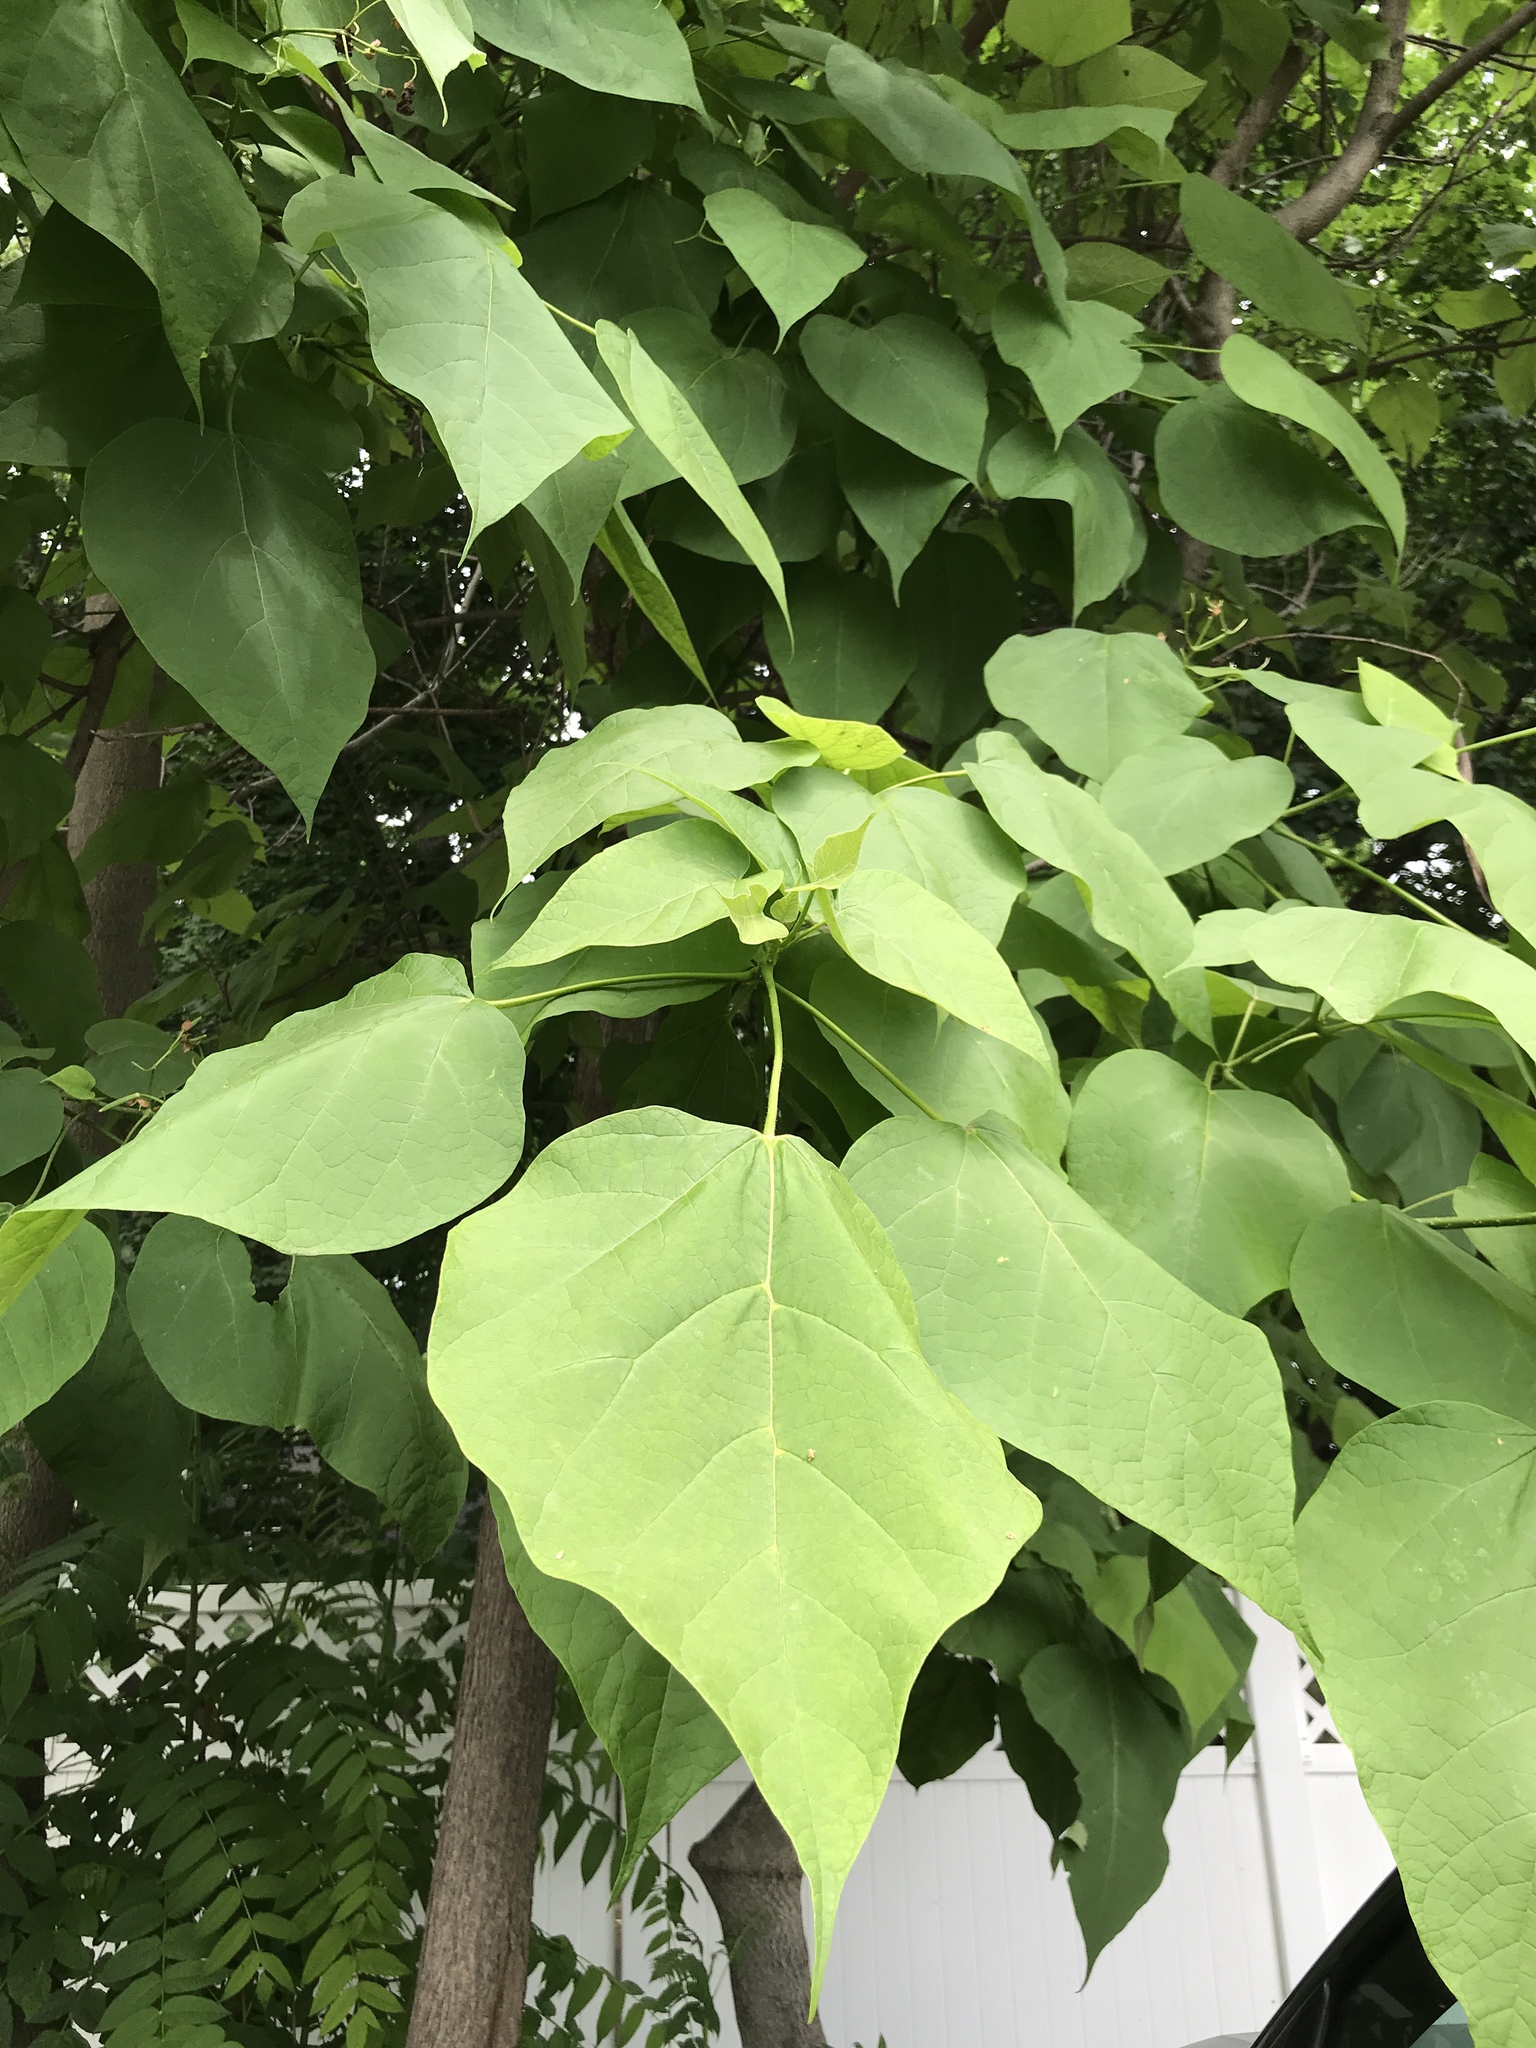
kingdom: Plantae
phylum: Tracheophyta
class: Magnoliopsida
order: Lamiales
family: Bignoniaceae
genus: Catalpa
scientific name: Catalpa speciosa
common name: Northern catalpa
